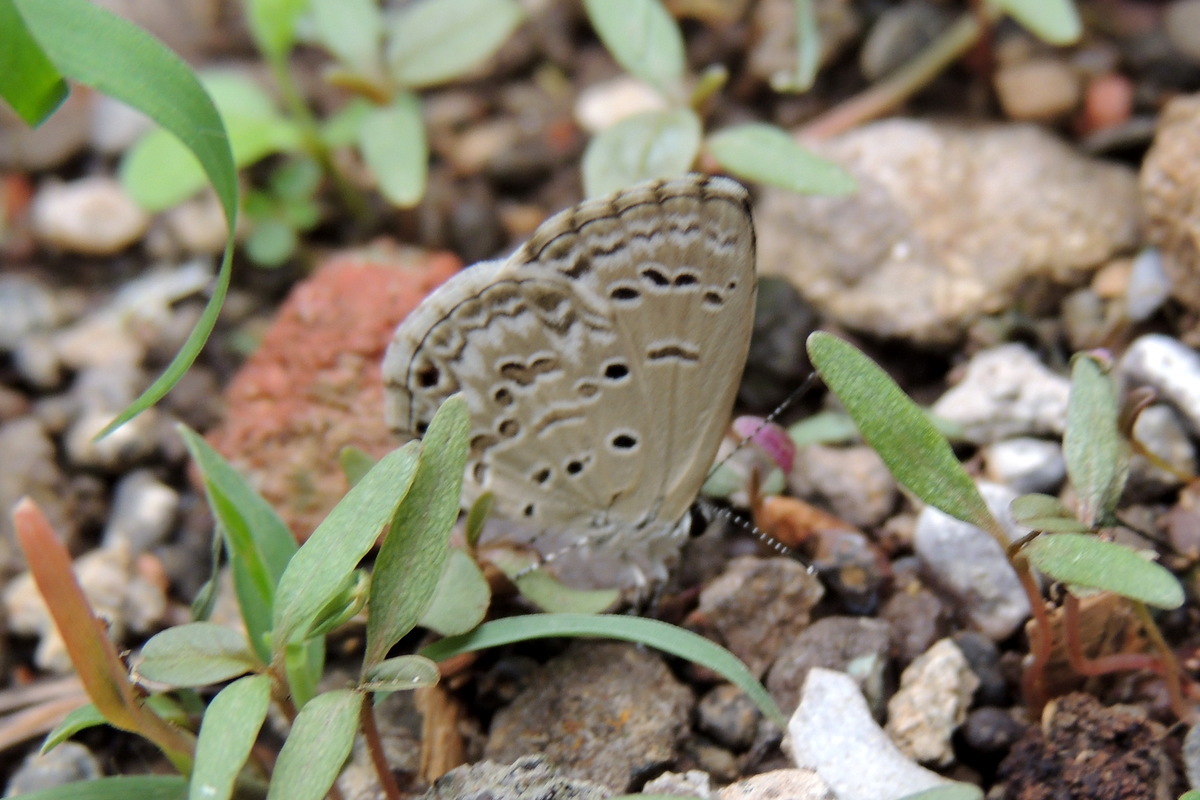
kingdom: Animalia
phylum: Arthropoda
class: Insecta
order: Lepidoptera
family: Lycaenidae
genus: Chilades
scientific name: Chilades laius
